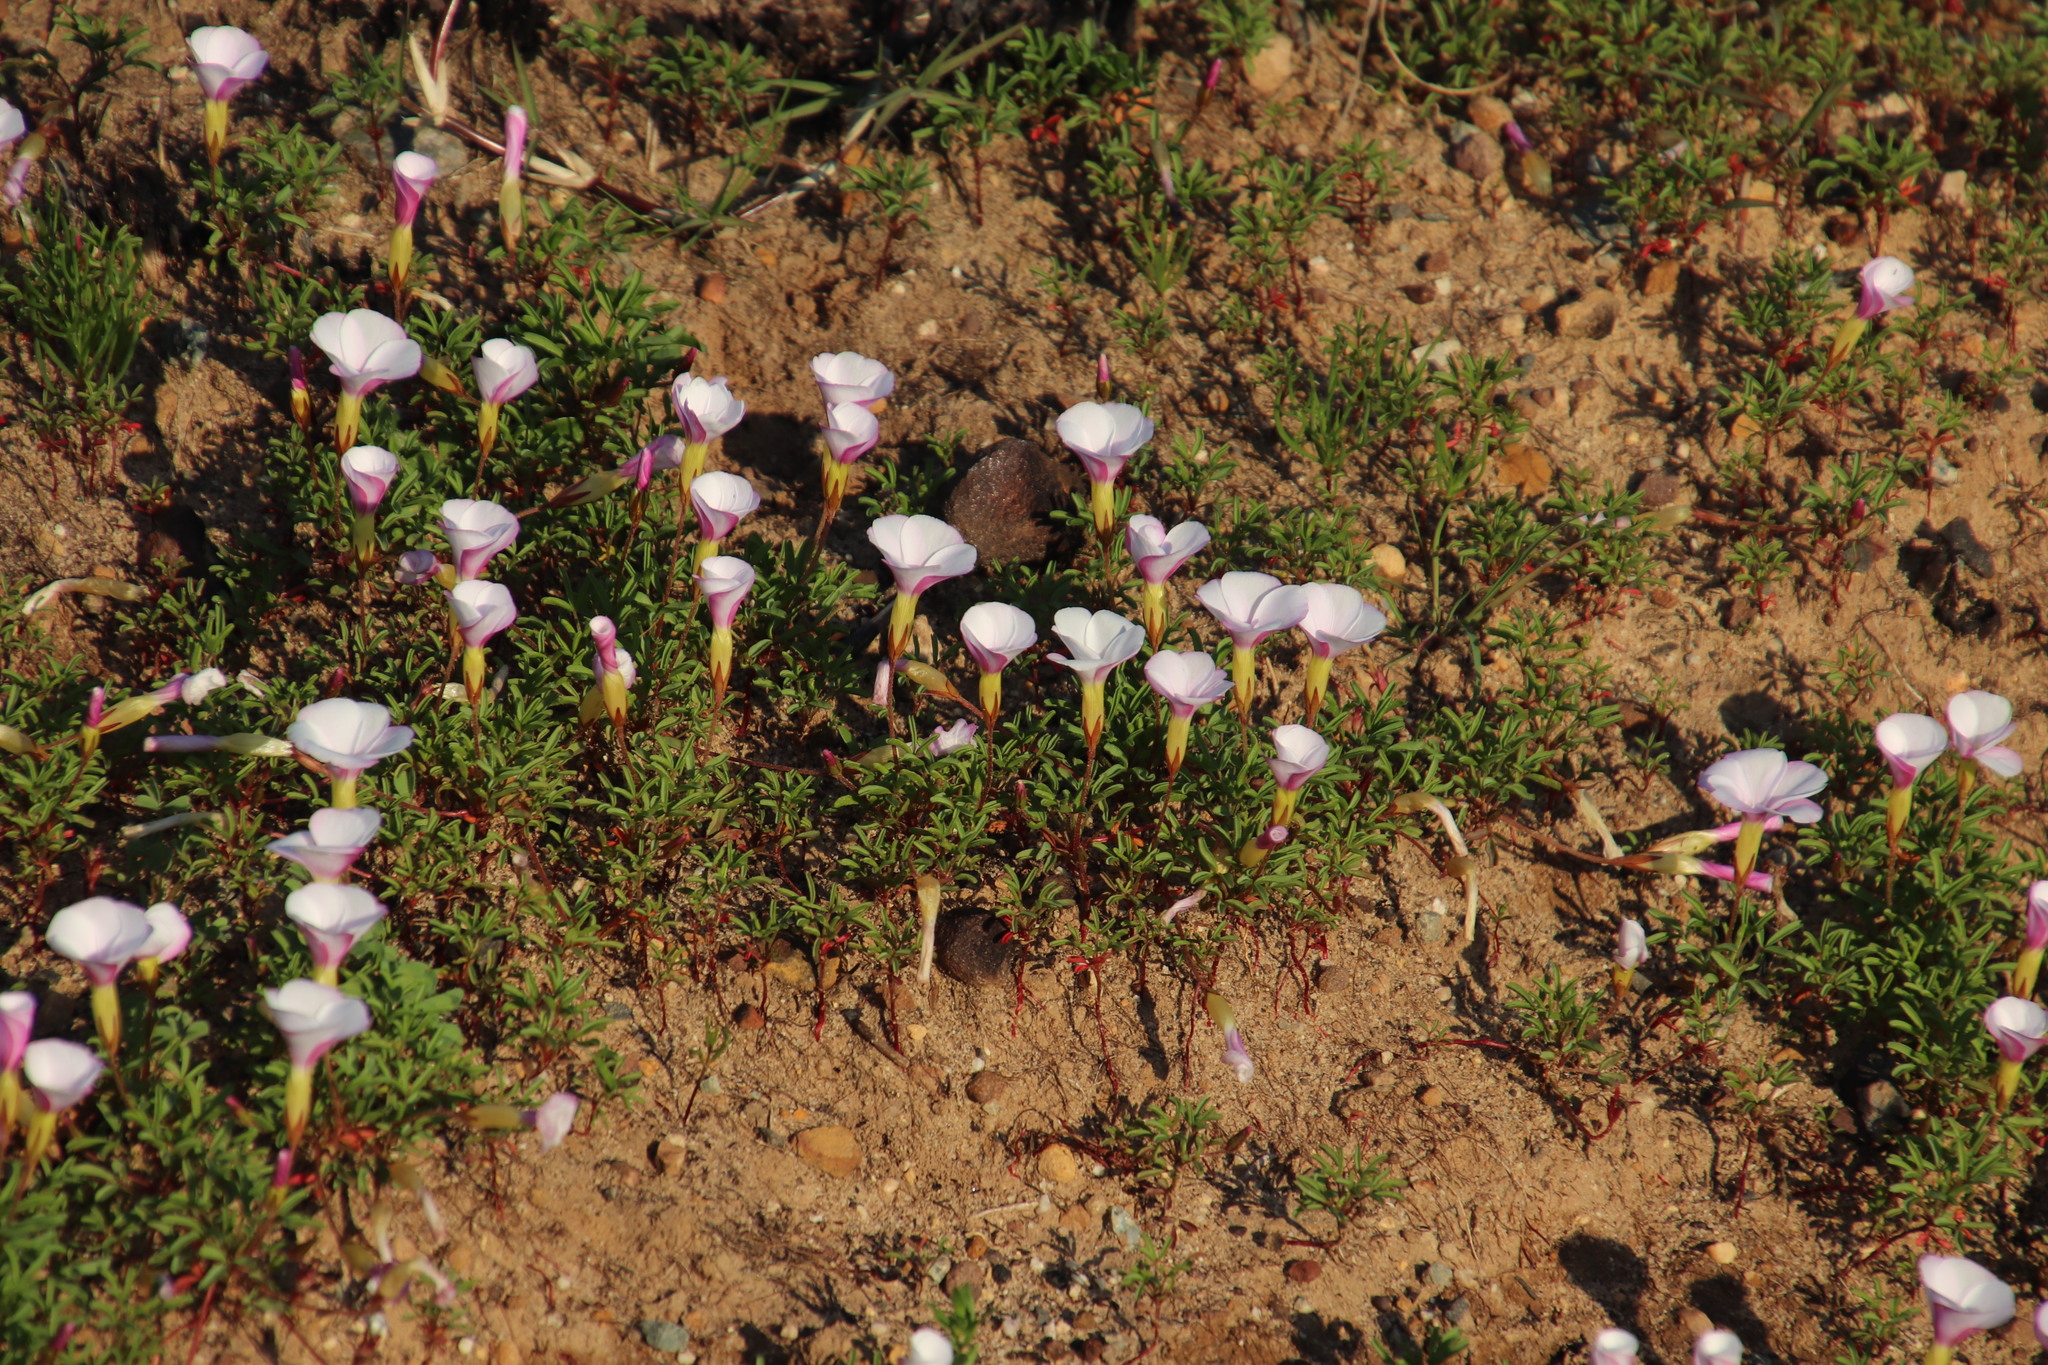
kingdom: Plantae
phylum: Tracheophyta
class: Magnoliopsida
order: Oxalidales
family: Oxalidaceae
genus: Oxalis
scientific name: Oxalis glabra
